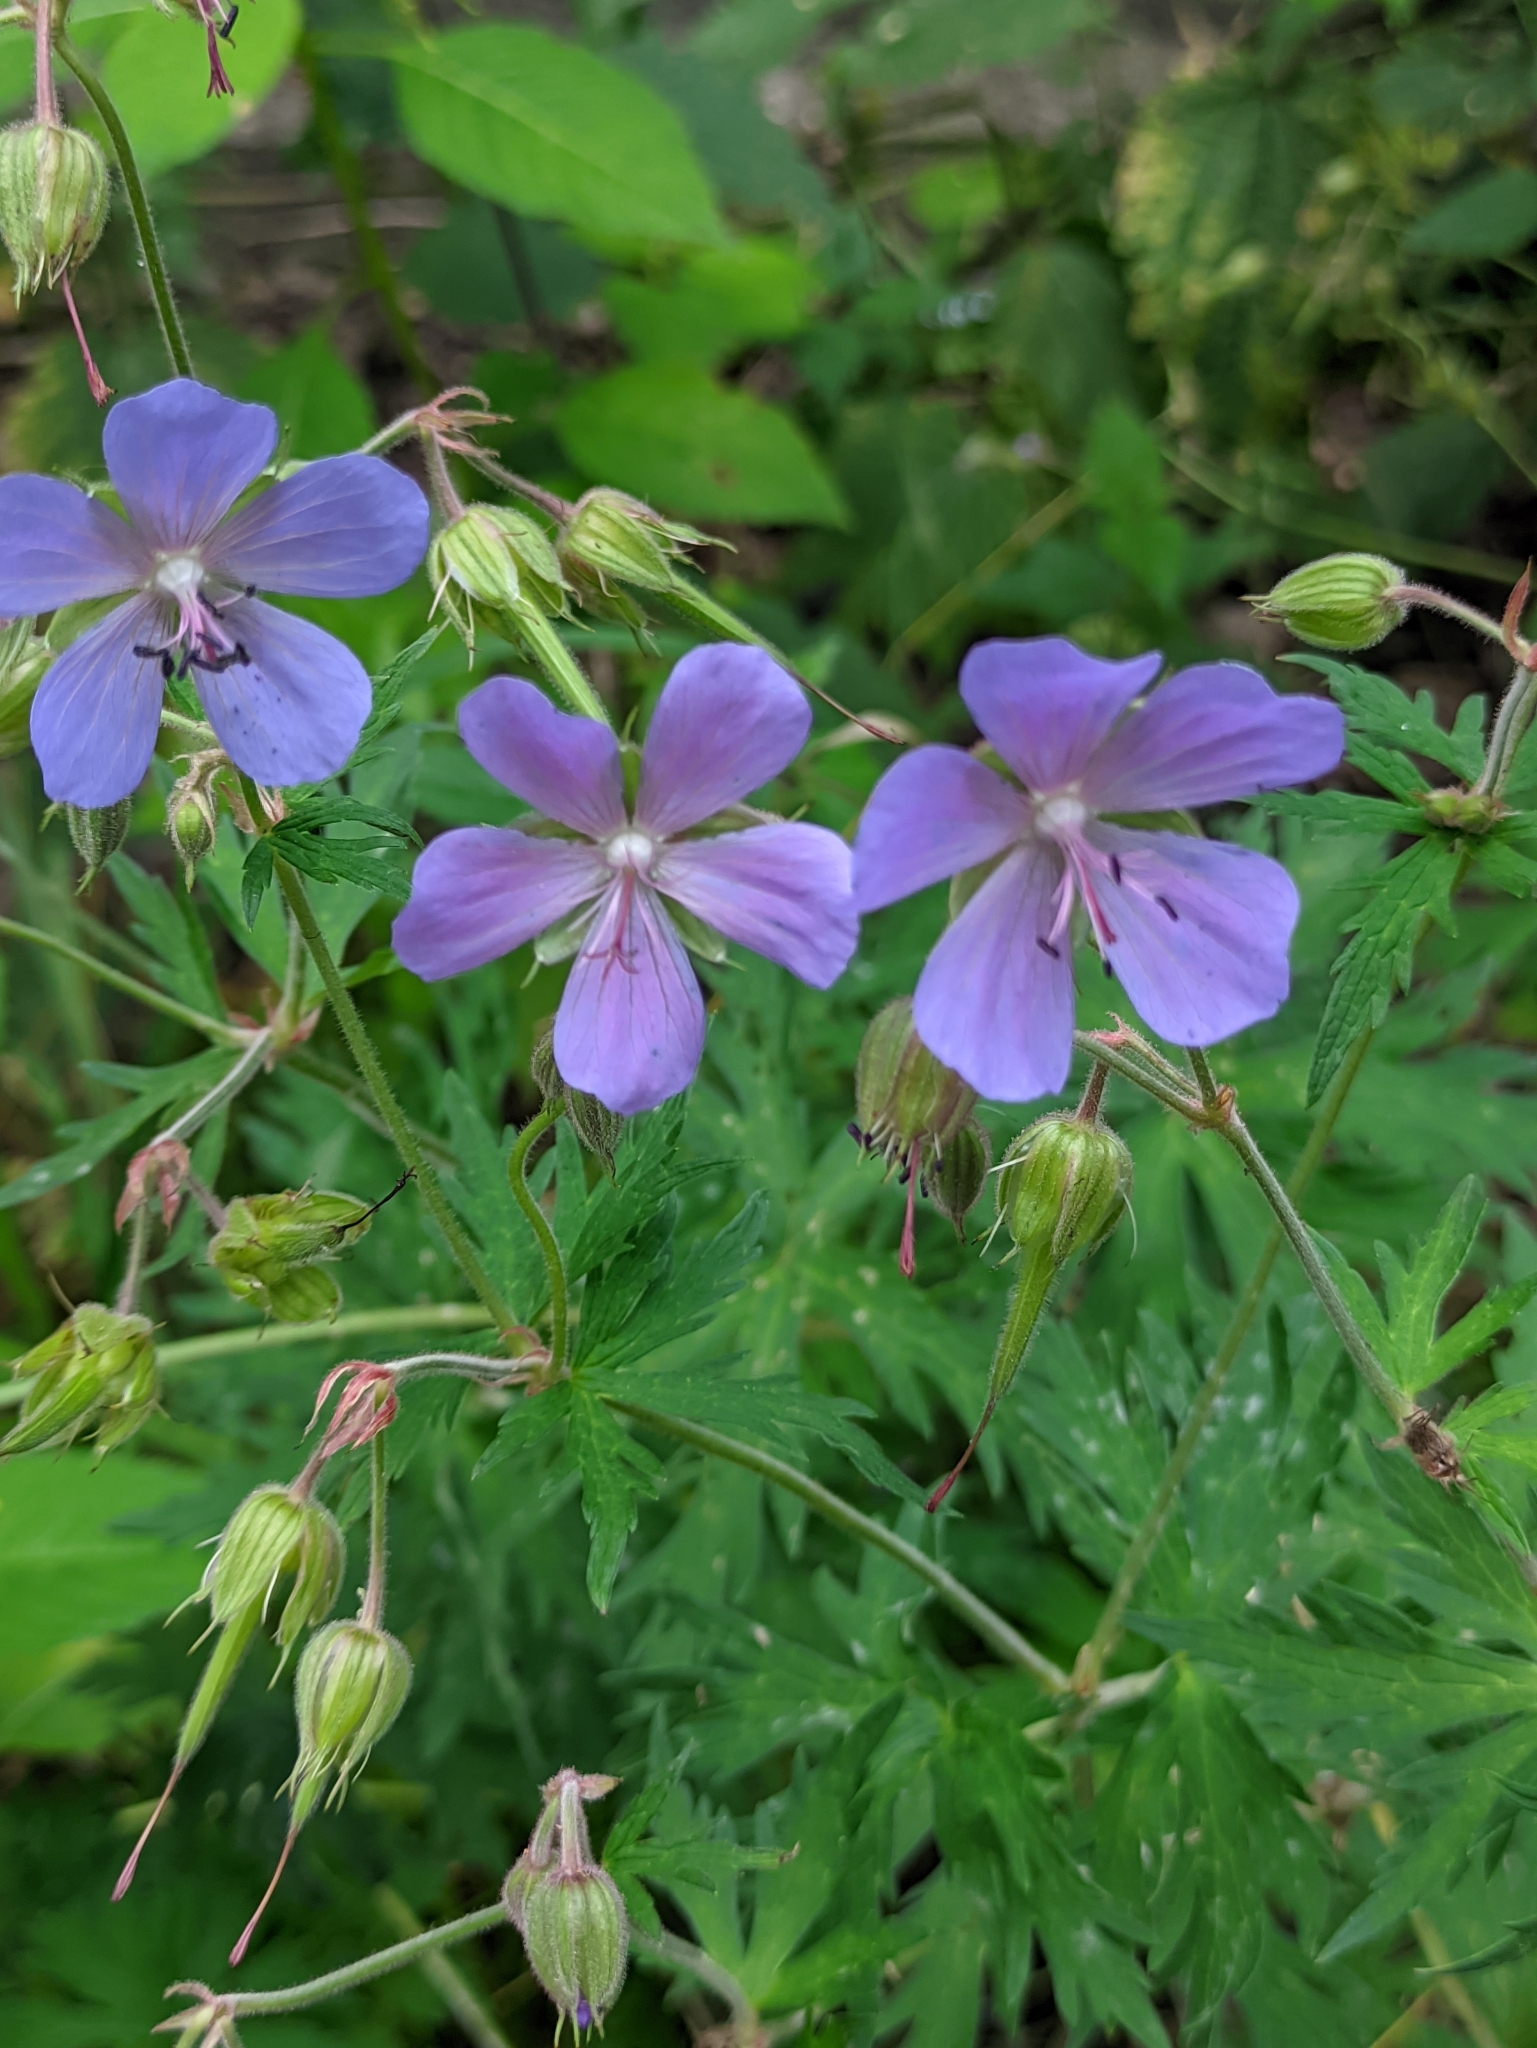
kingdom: Plantae
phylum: Tracheophyta
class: Magnoliopsida
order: Geraniales
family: Geraniaceae
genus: Geranium
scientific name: Geranium pratense
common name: Meadow crane's-bill
